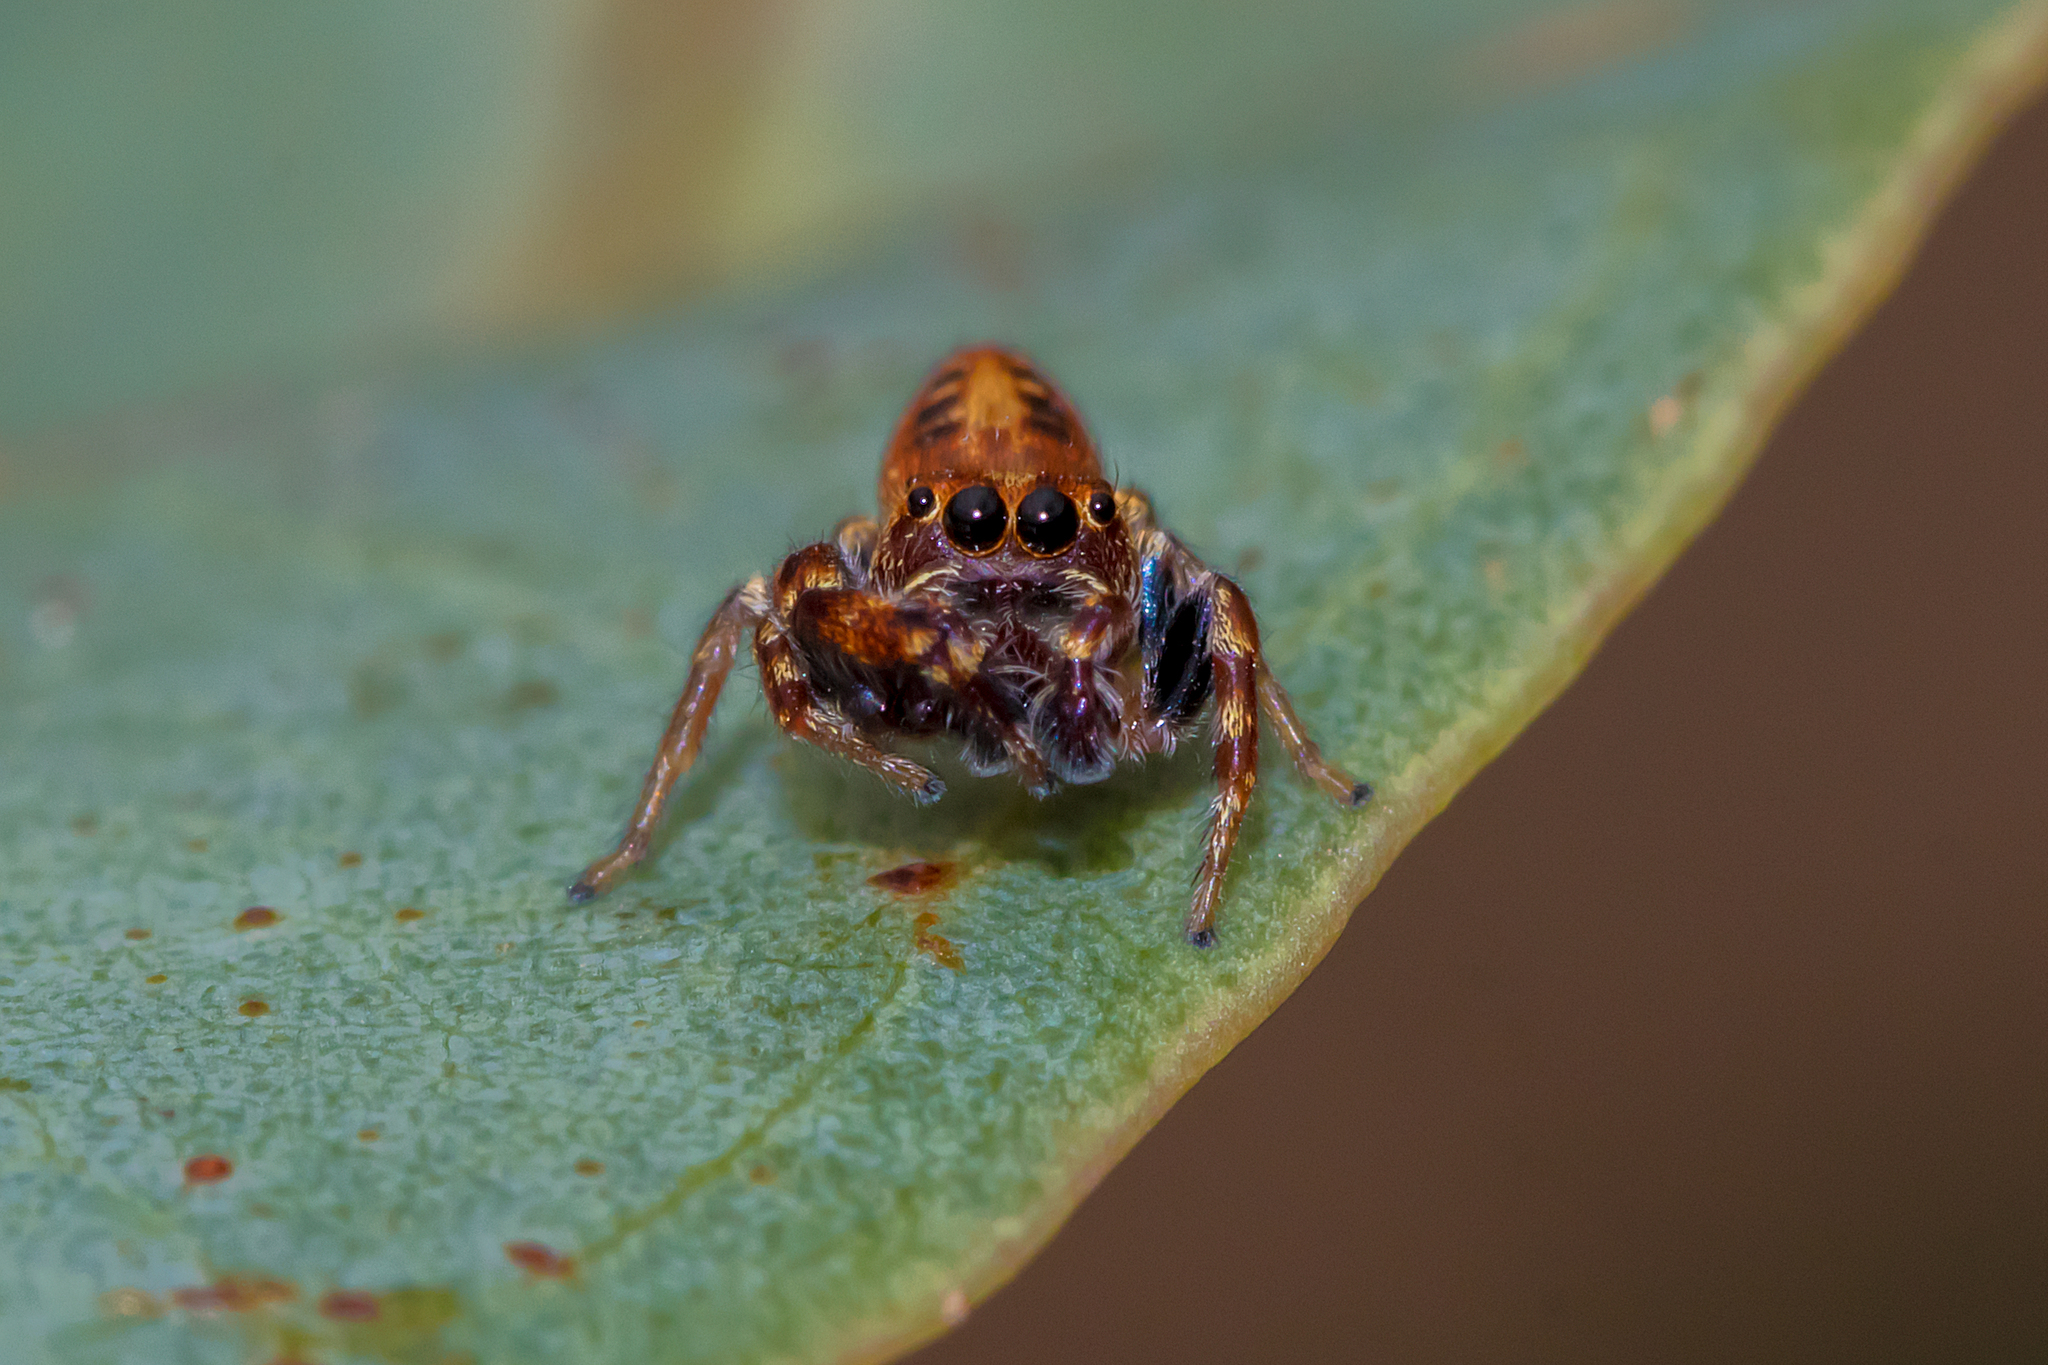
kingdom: Animalia
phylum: Arthropoda
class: Arachnida
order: Araneae
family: Salticidae
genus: Opisthoncus
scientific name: Opisthoncus sexmaculatus
